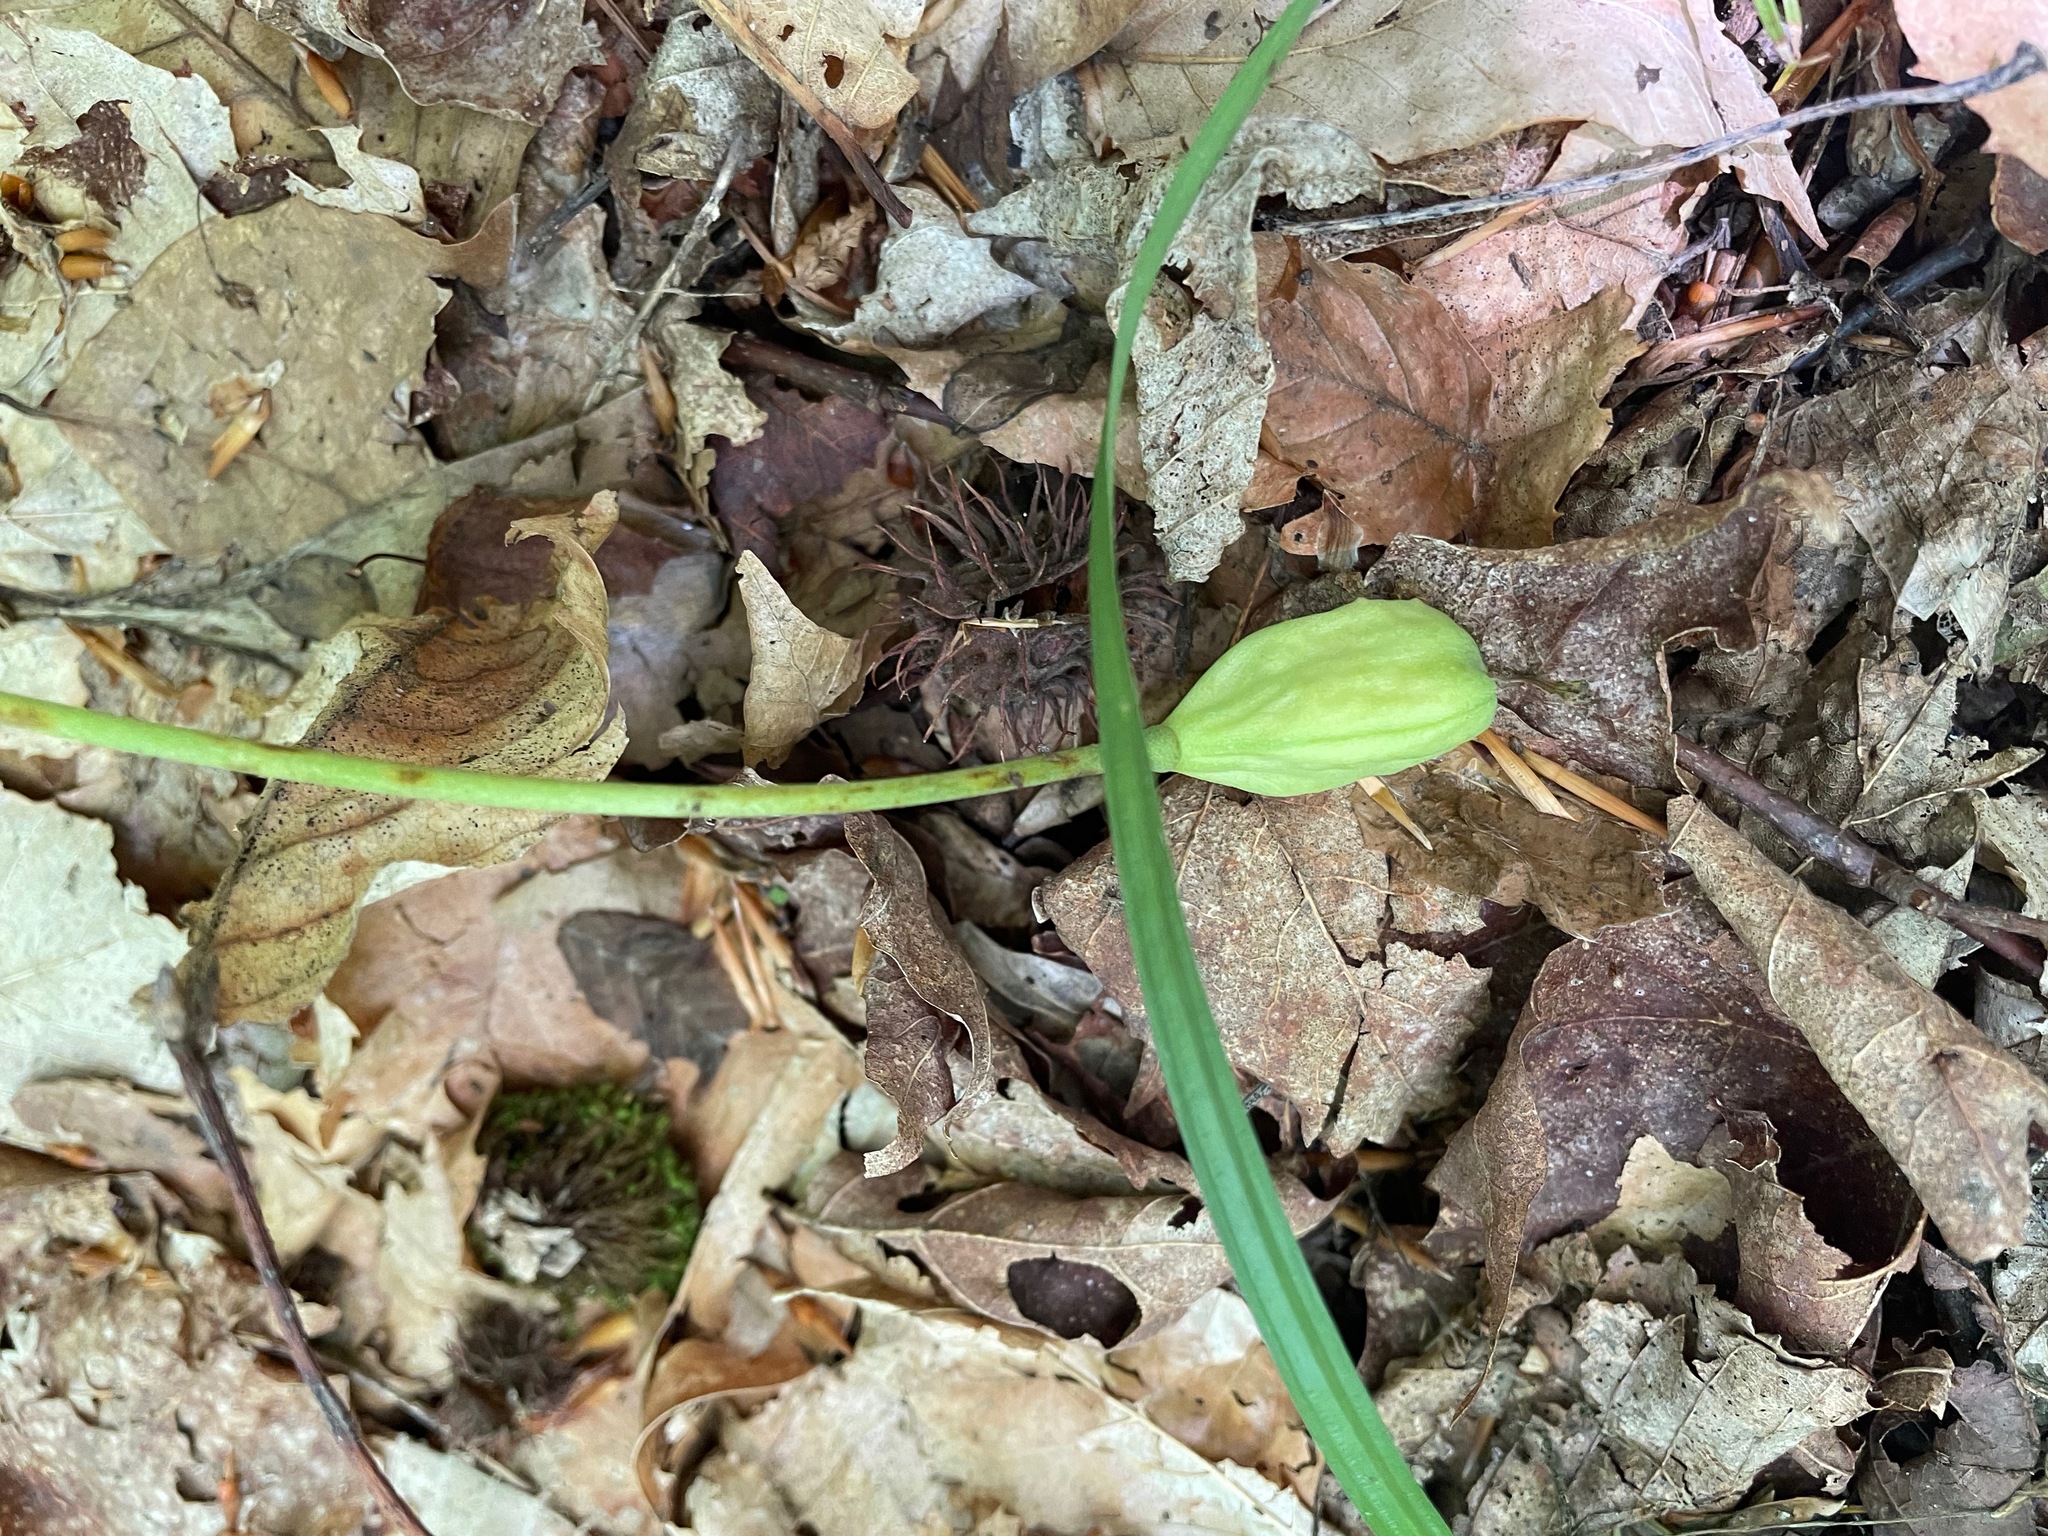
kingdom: Plantae
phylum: Tracheophyta
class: Liliopsida
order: Liliales
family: Liliaceae
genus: Erythronium
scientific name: Erythronium americanum
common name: Yellow adder's-tongue
